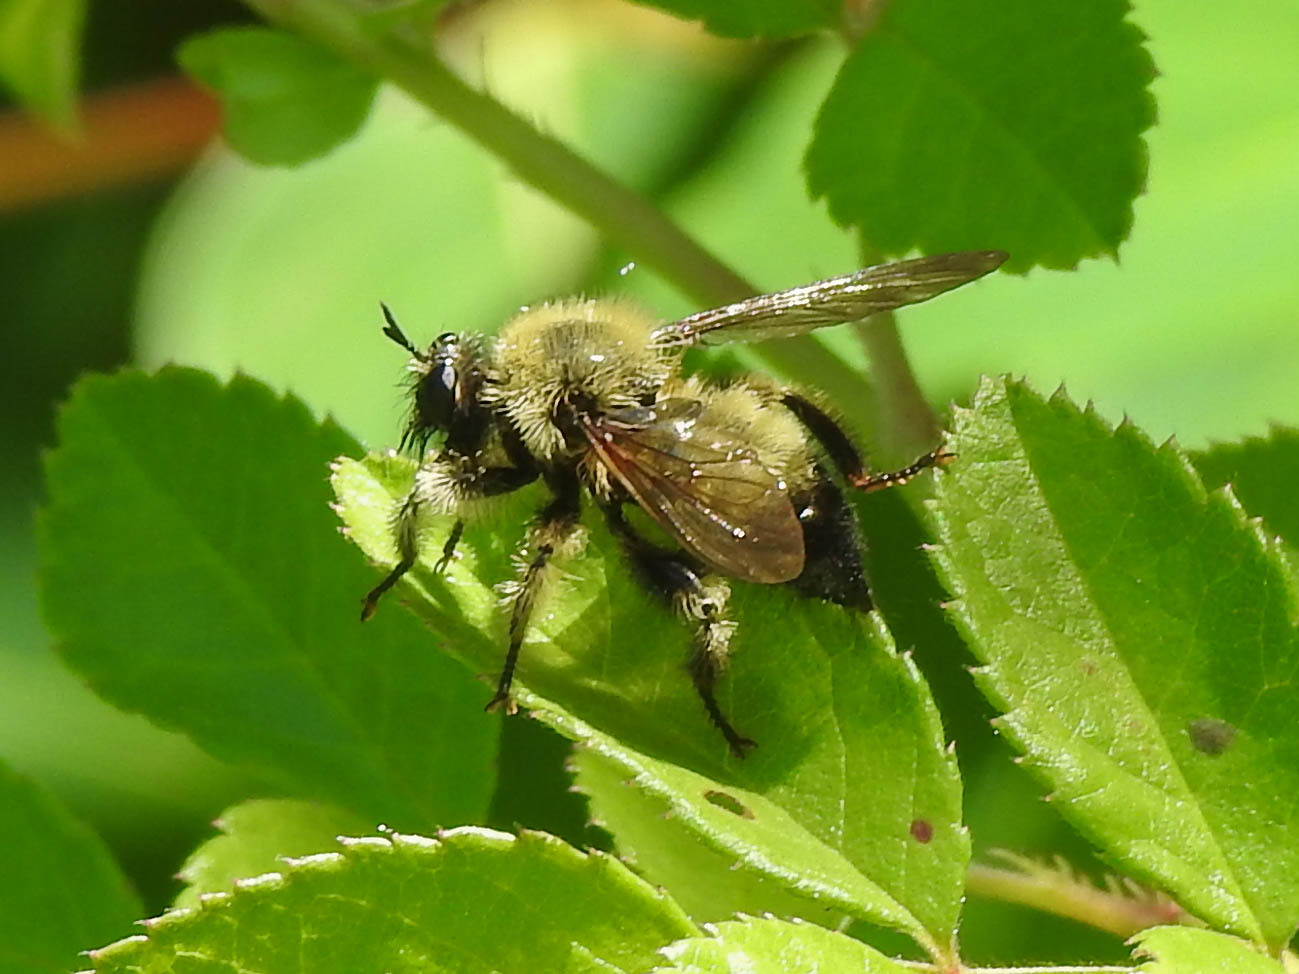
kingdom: Animalia
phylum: Arthropoda
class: Insecta
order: Diptera
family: Asilidae
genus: Laphria
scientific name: Laphria sacrator
